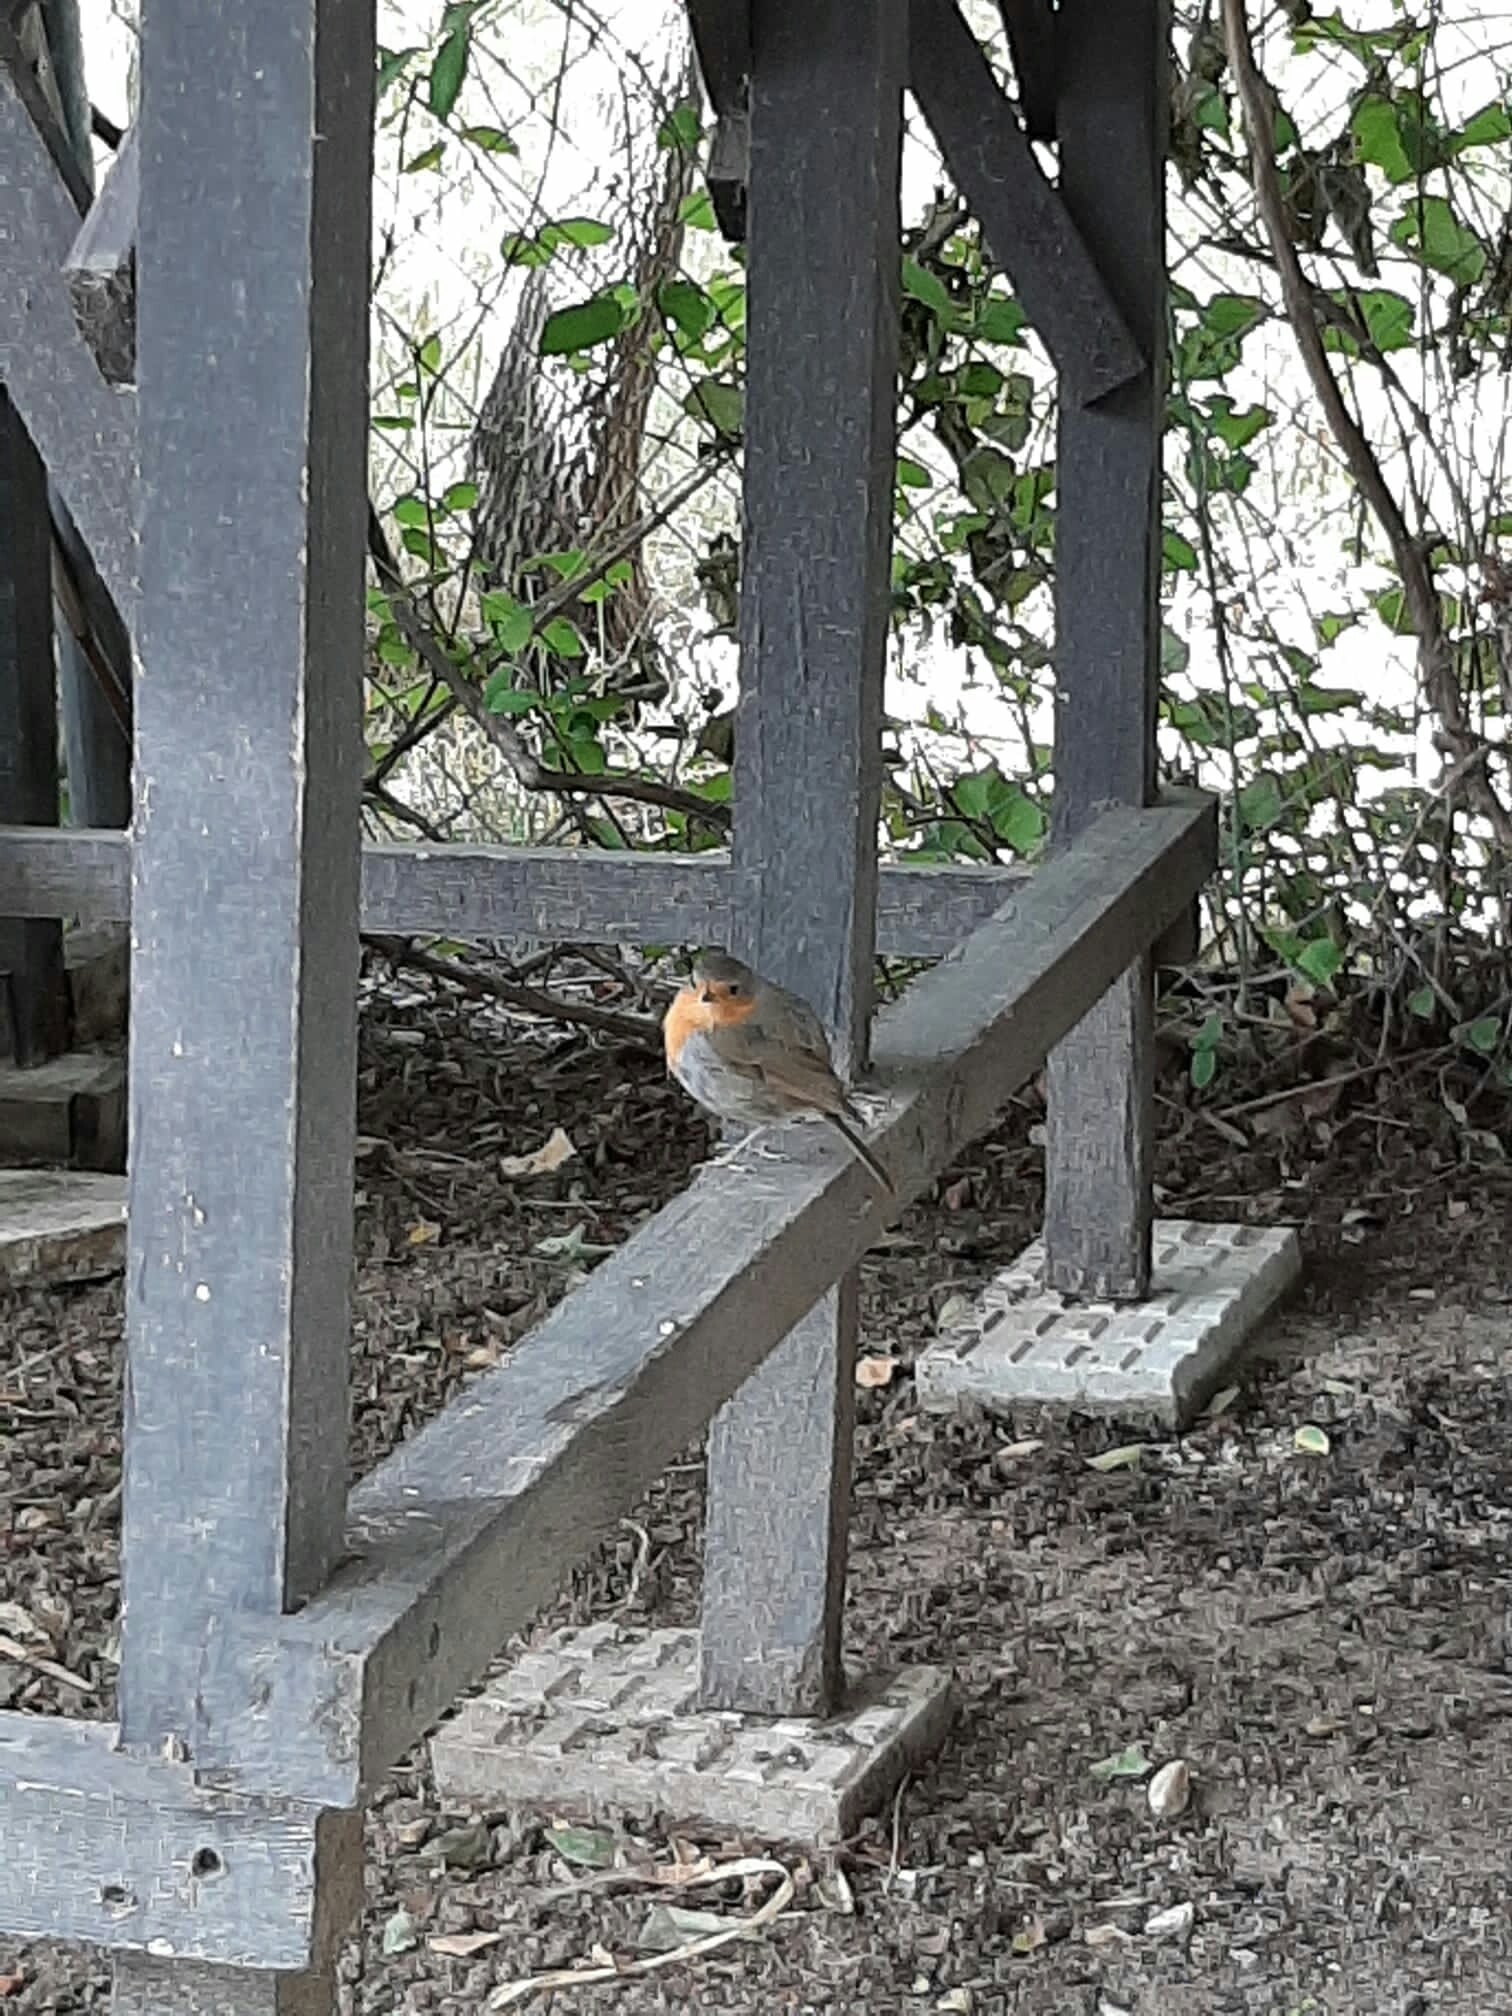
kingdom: Animalia
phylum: Chordata
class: Aves
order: Passeriformes
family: Muscicapidae
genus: Erithacus
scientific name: Erithacus rubecula
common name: European robin
